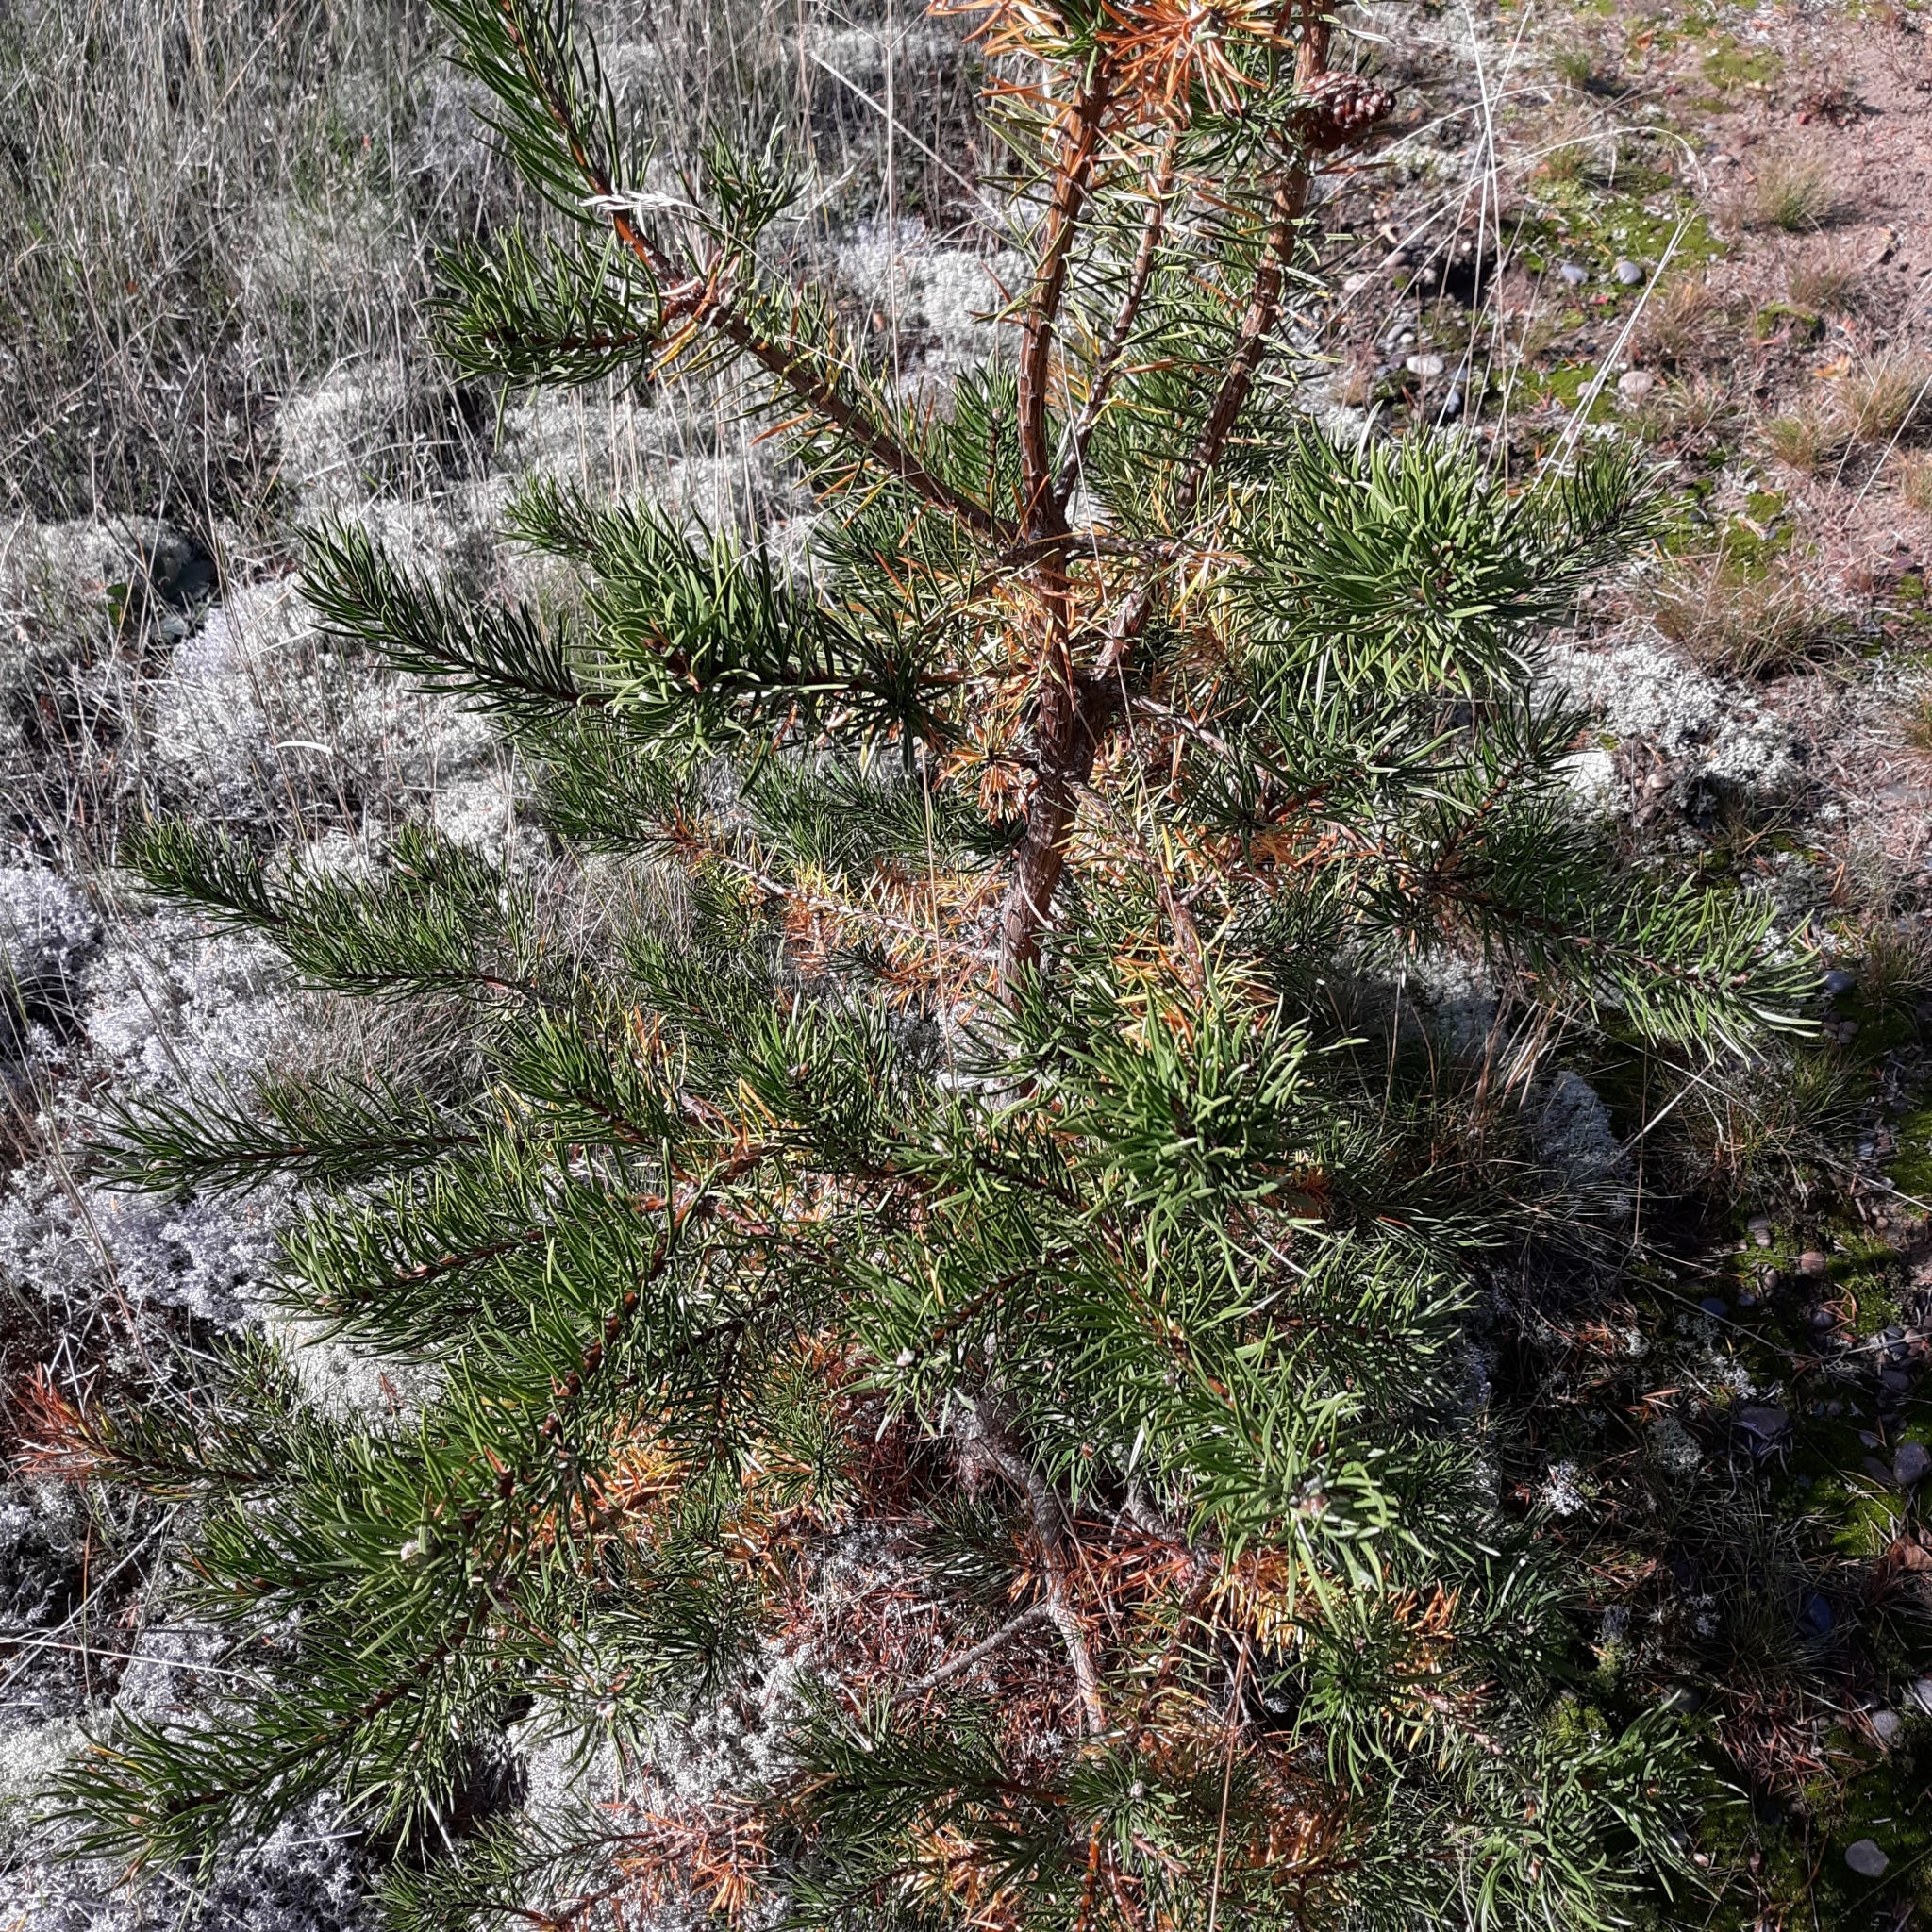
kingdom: Plantae
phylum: Tracheophyta
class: Pinopsida
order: Pinales
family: Pinaceae
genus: Pinus
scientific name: Pinus banksiana
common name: Jack pine
